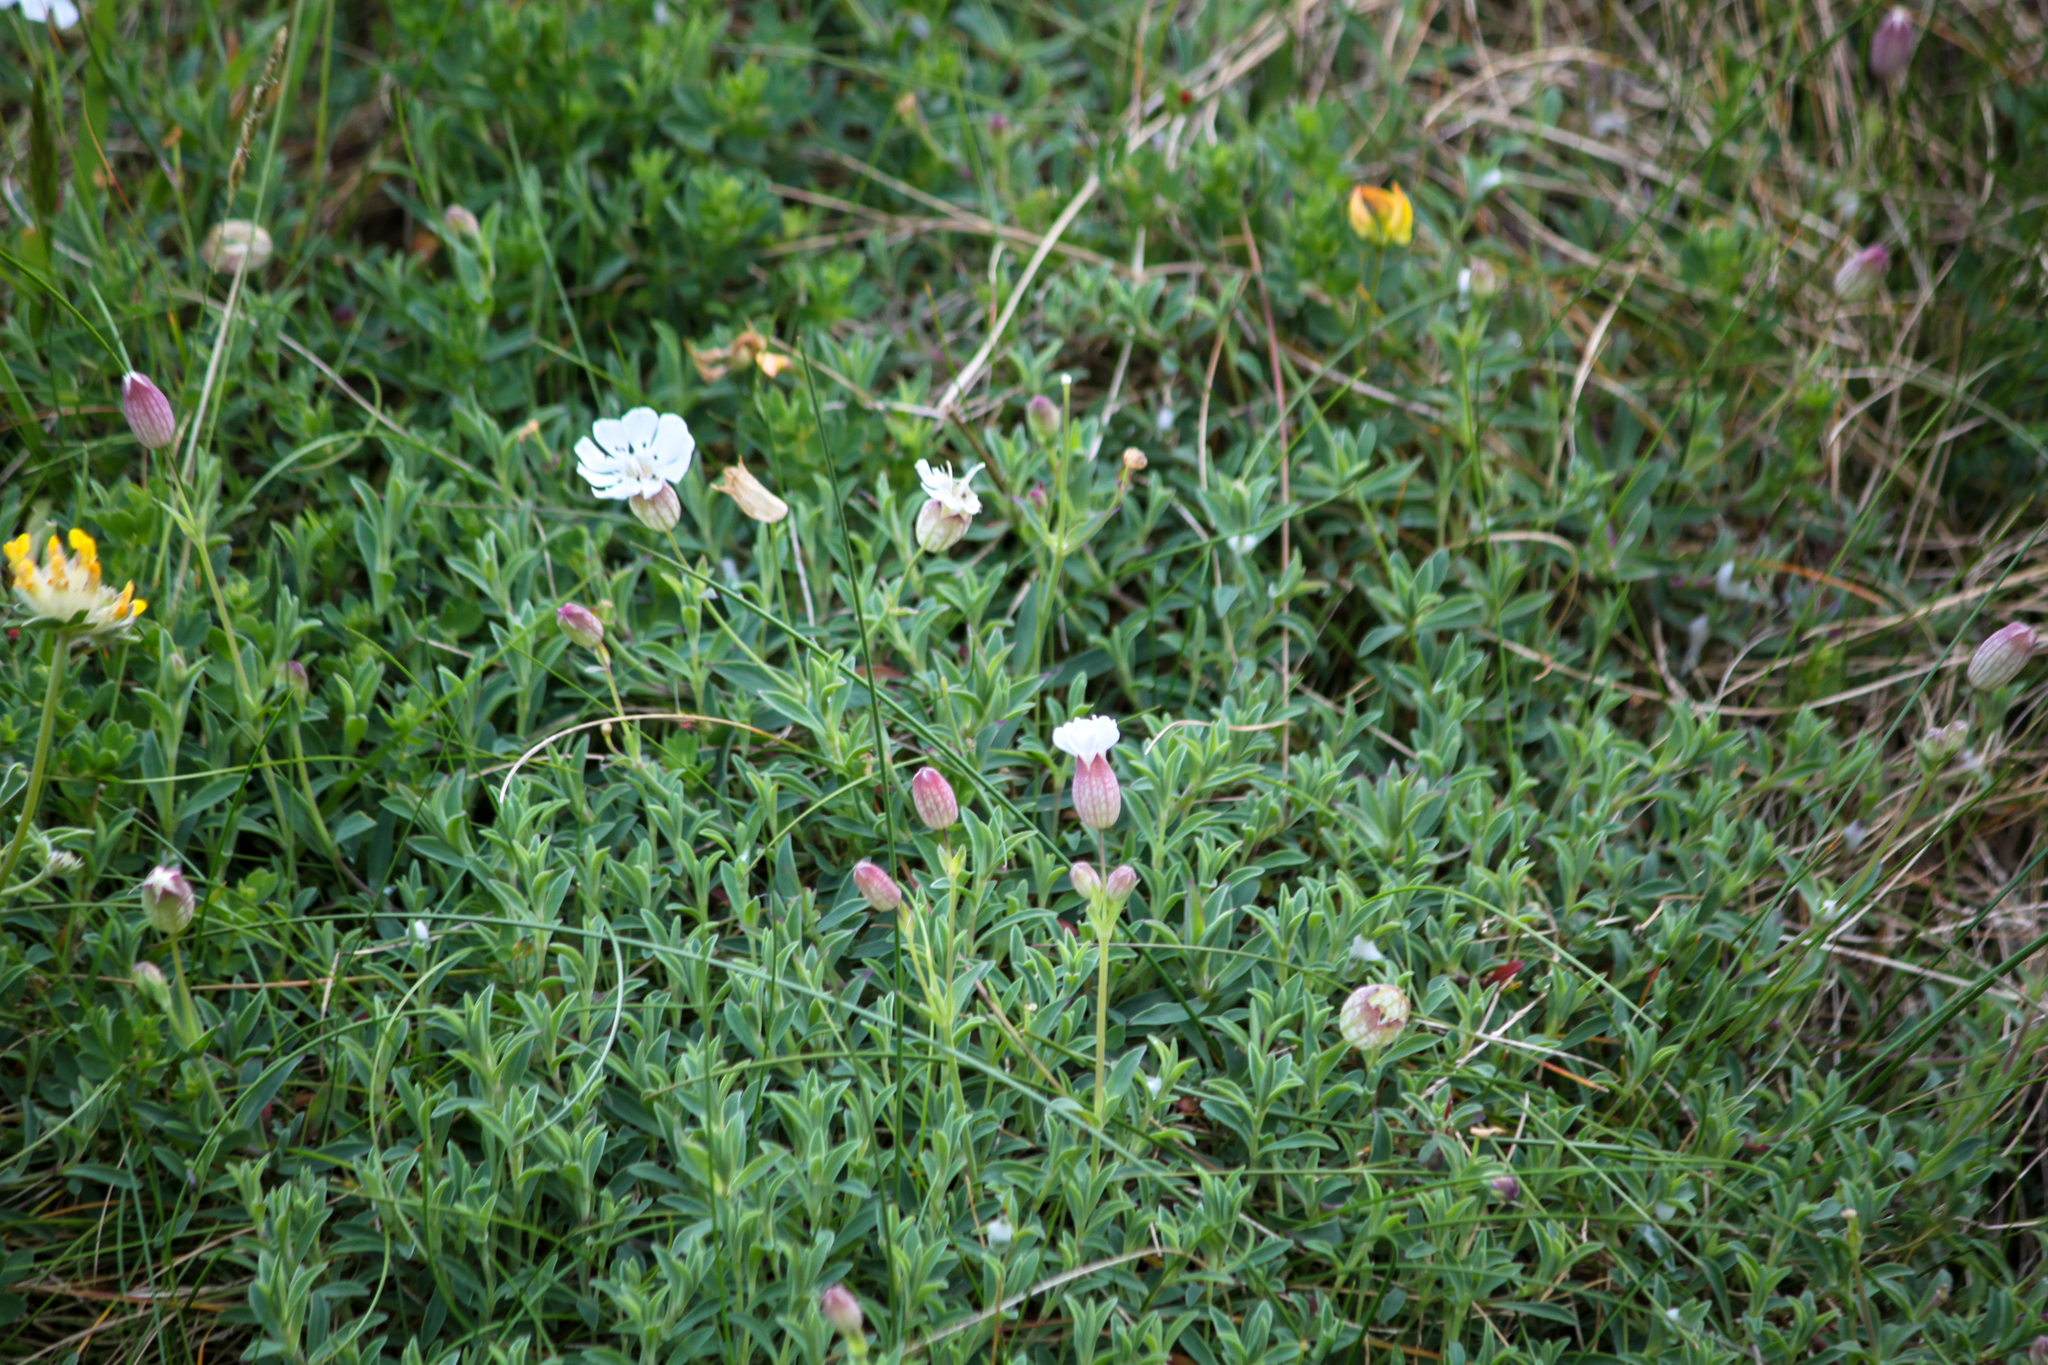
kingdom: Plantae
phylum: Tracheophyta
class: Magnoliopsida
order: Caryophyllales
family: Caryophyllaceae
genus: Silene
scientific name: Silene uniflora
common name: Sea campion
